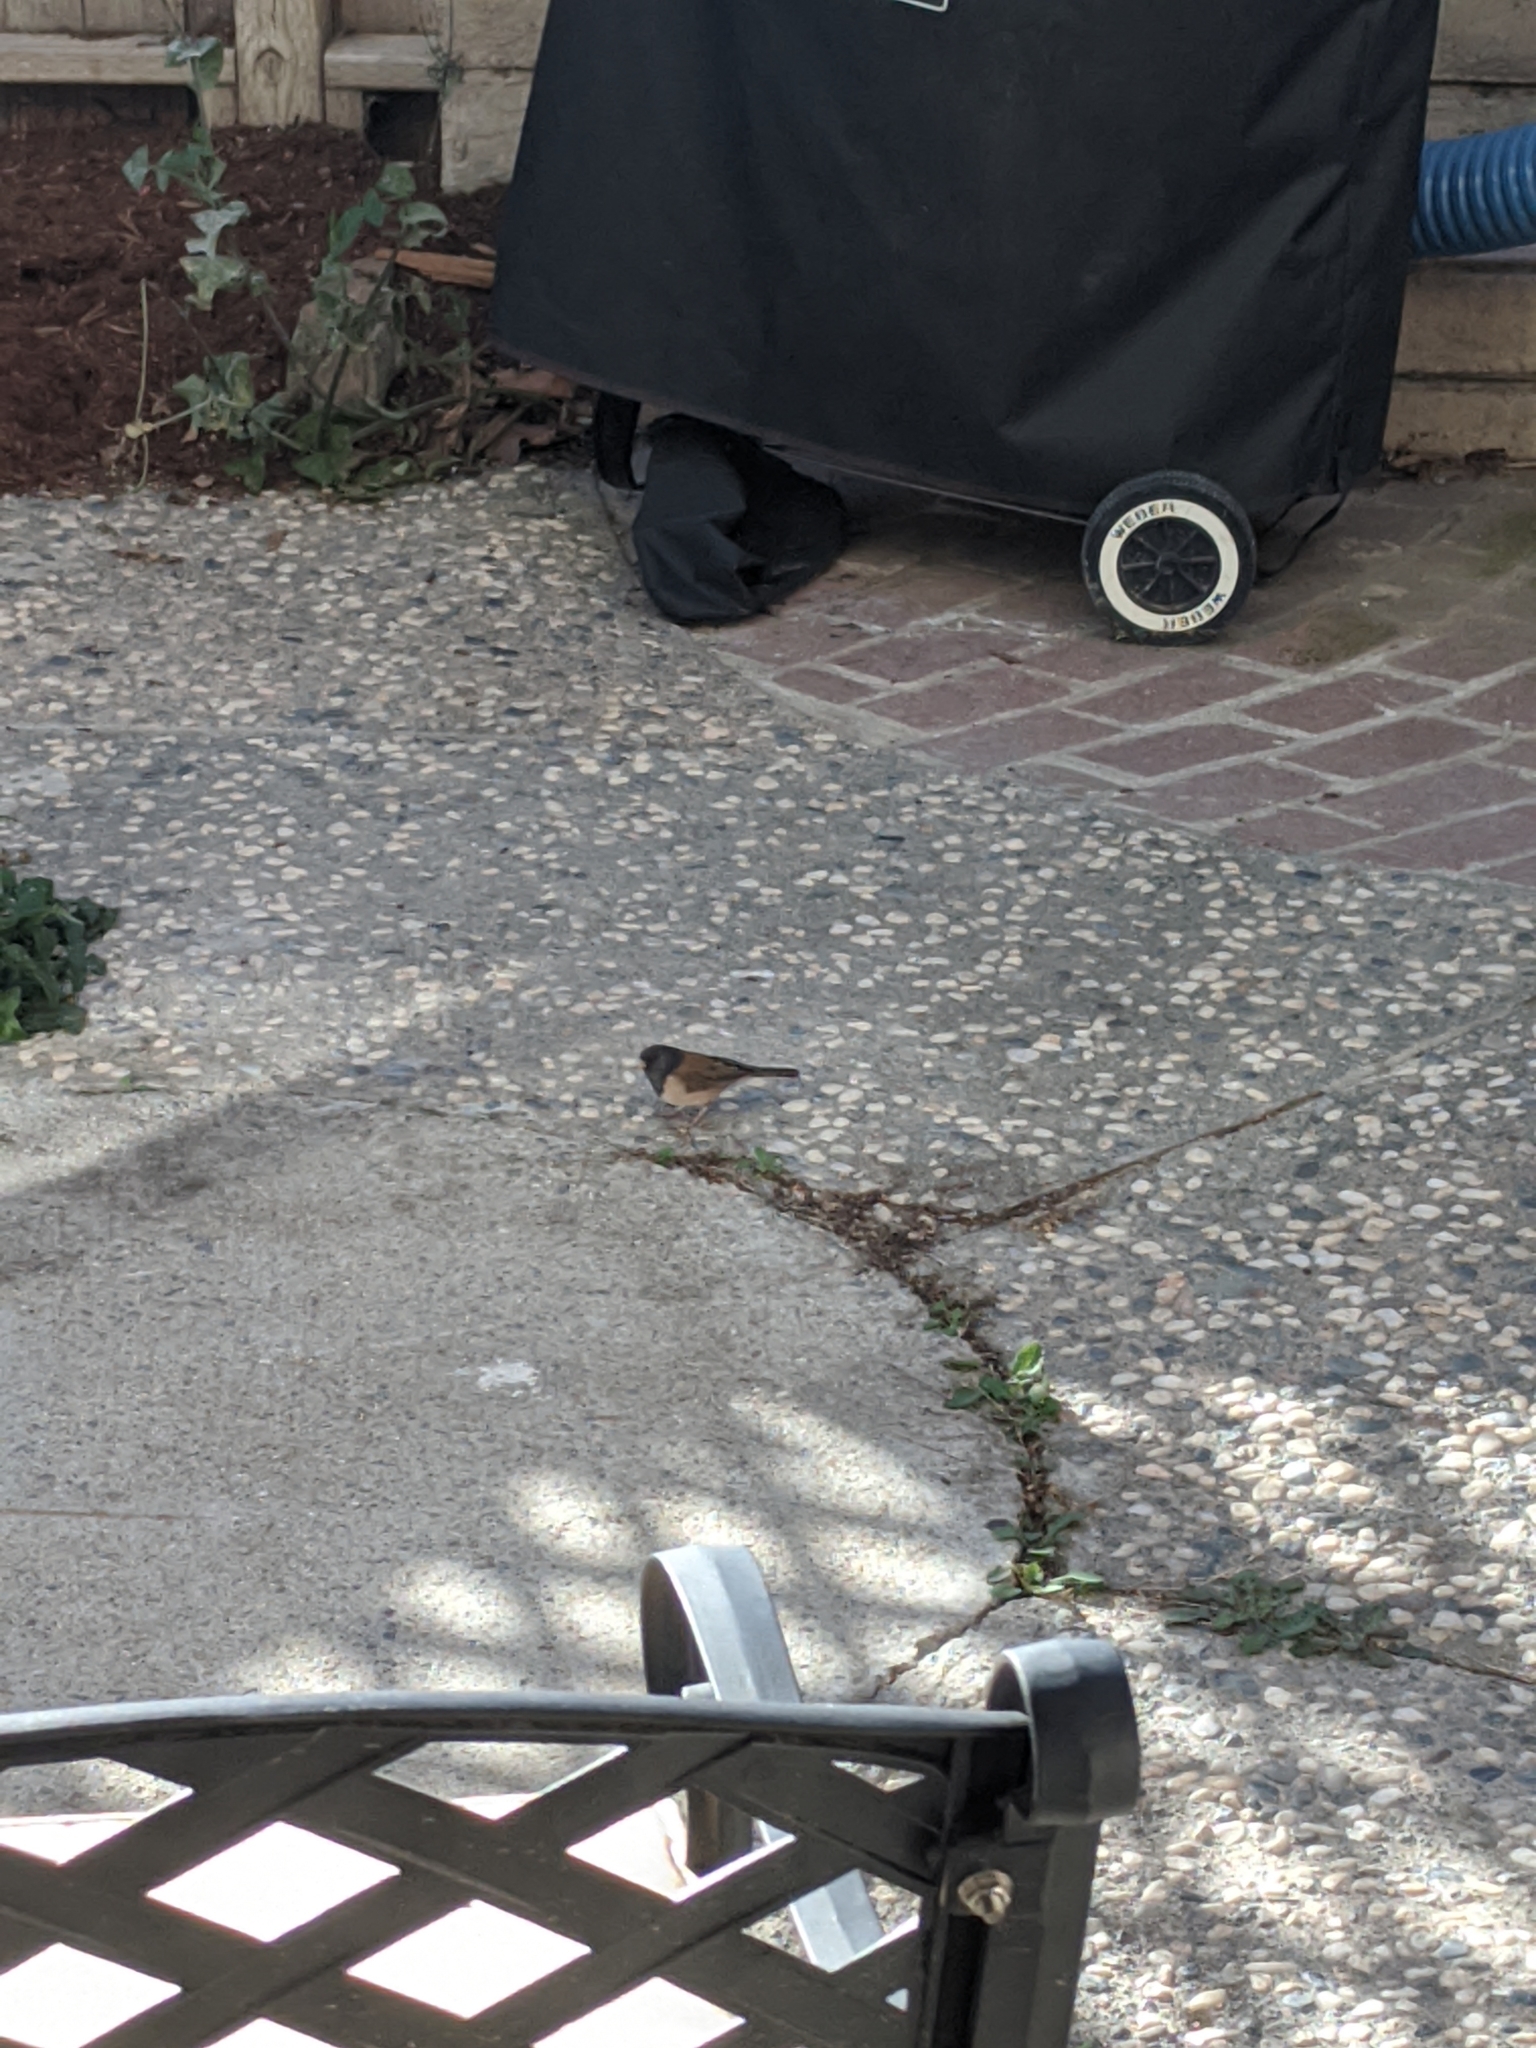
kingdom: Animalia
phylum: Chordata
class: Aves
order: Passeriformes
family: Passerellidae
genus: Junco
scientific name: Junco hyemalis
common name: Dark-eyed junco
